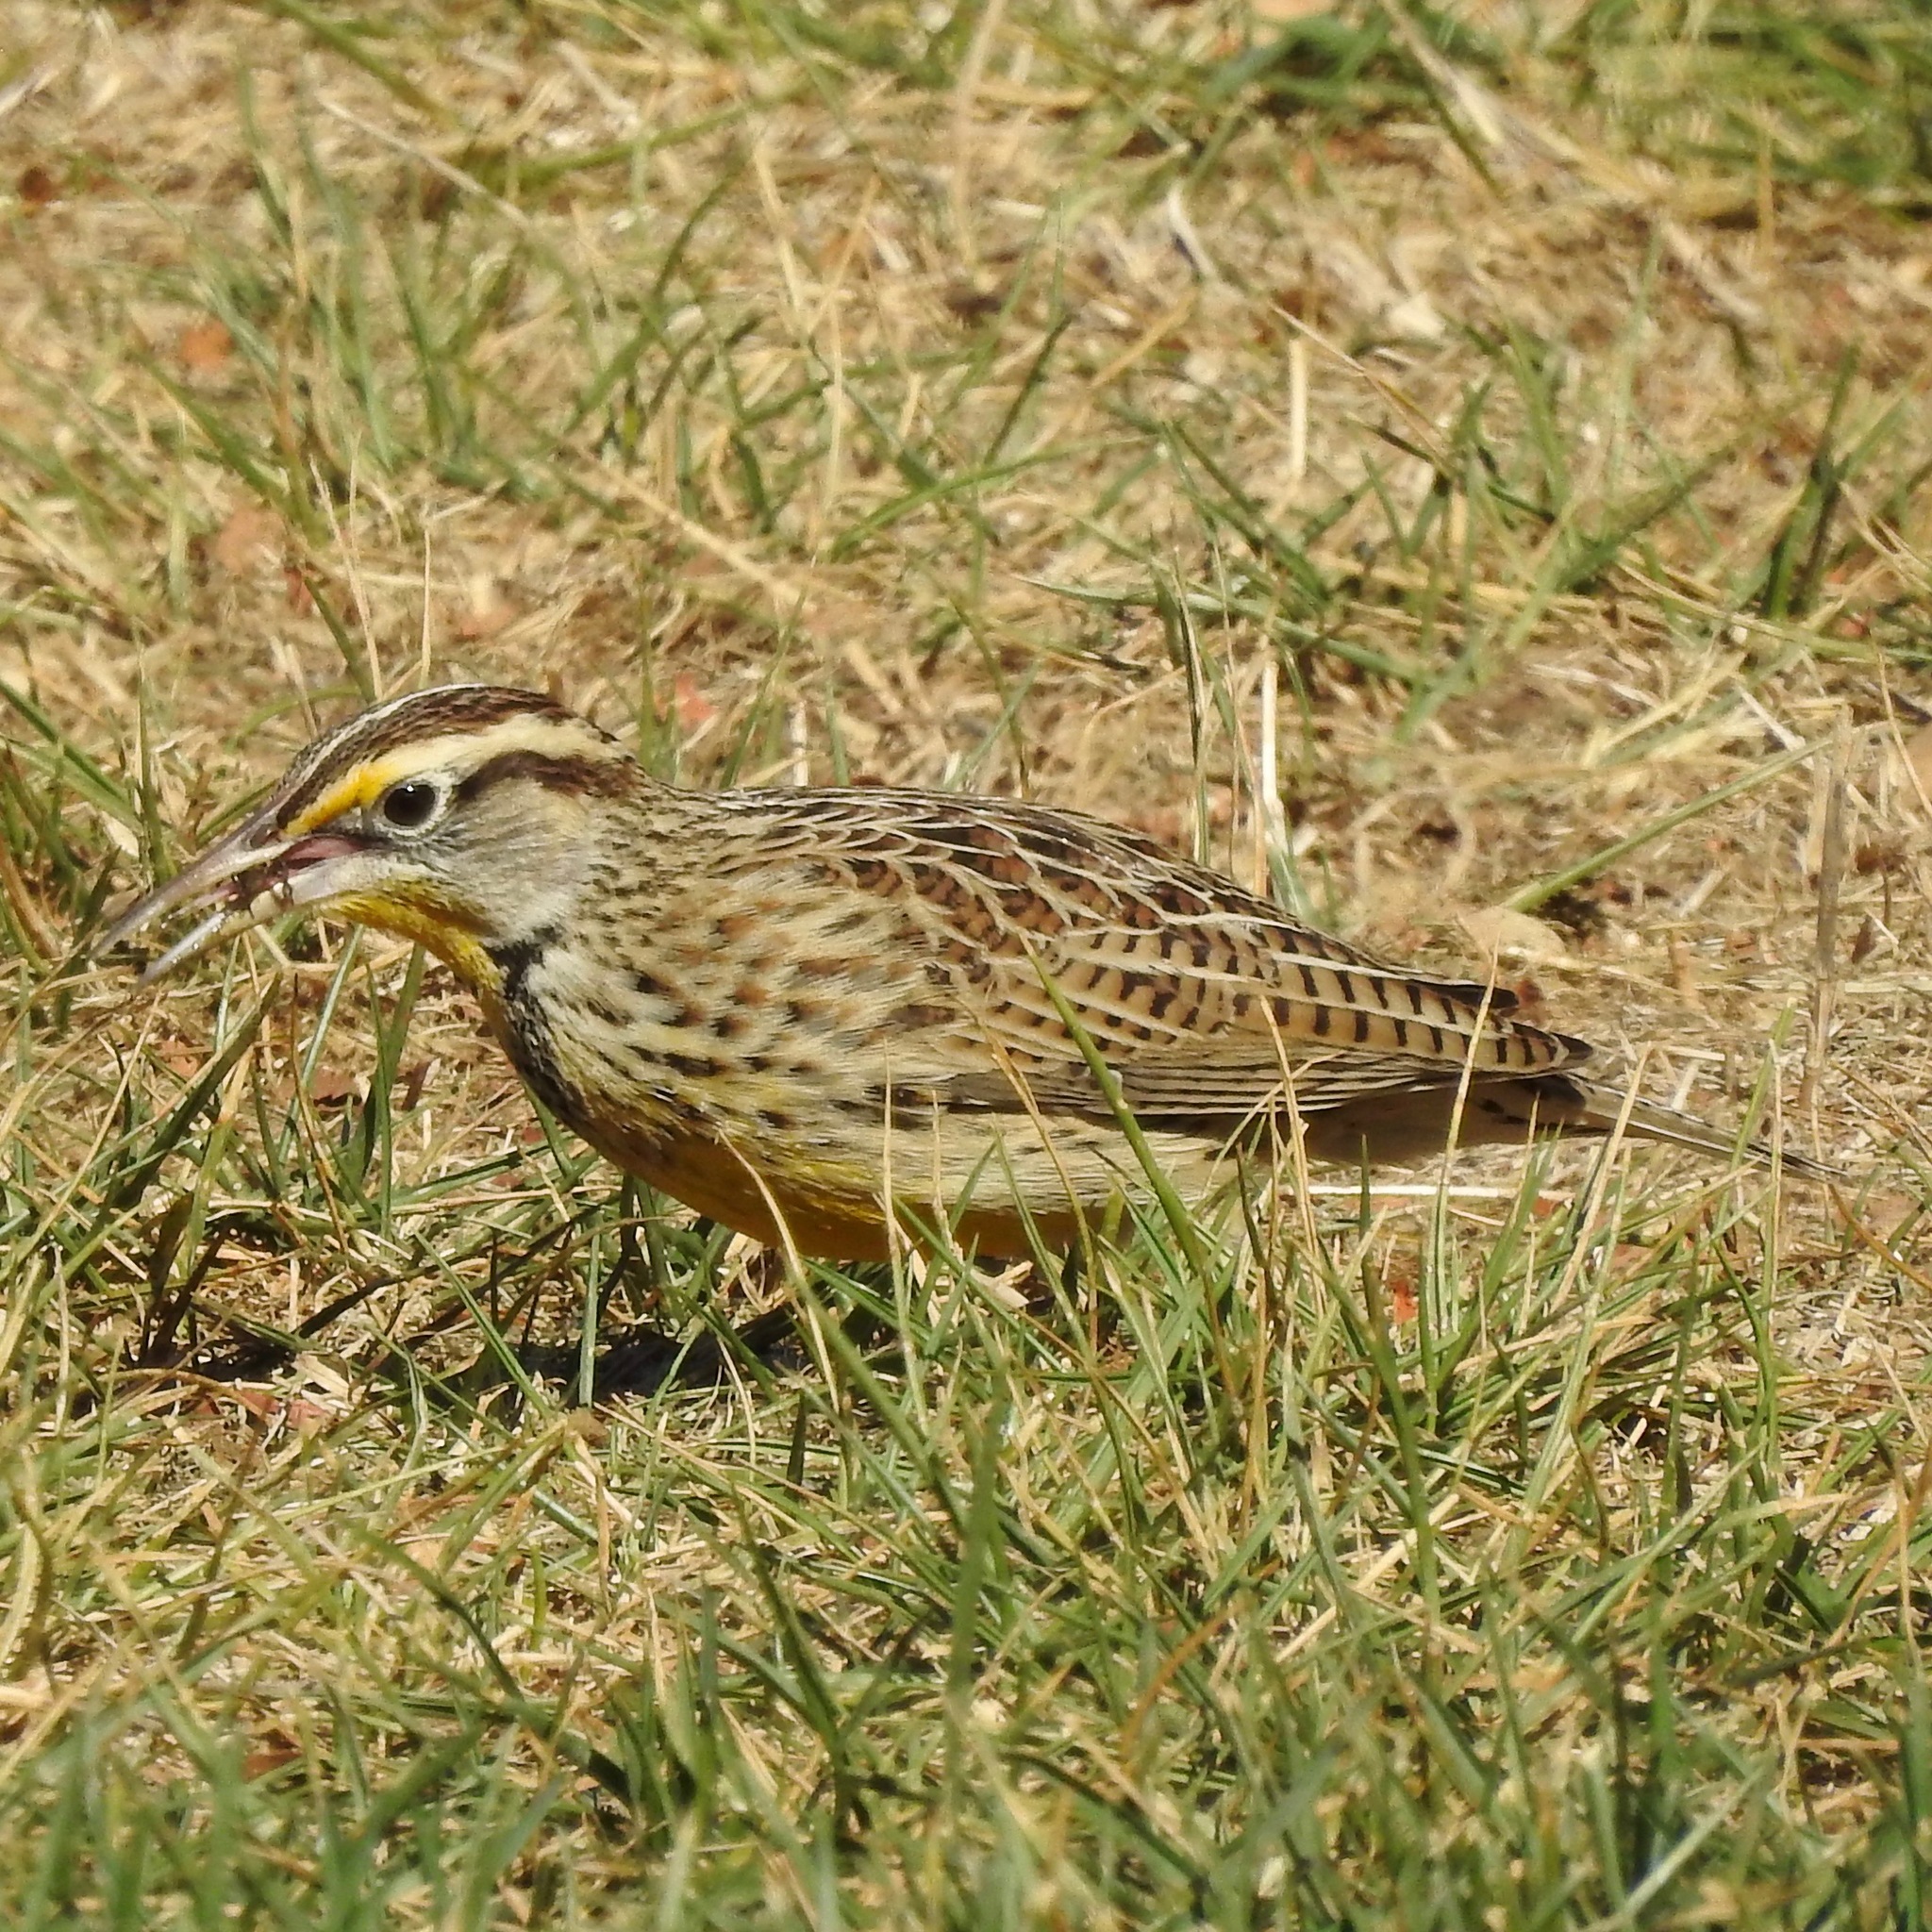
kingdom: Animalia
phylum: Chordata
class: Aves
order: Passeriformes
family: Icteridae
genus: Sturnella
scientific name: Sturnella neglecta
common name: Western meadowlark
